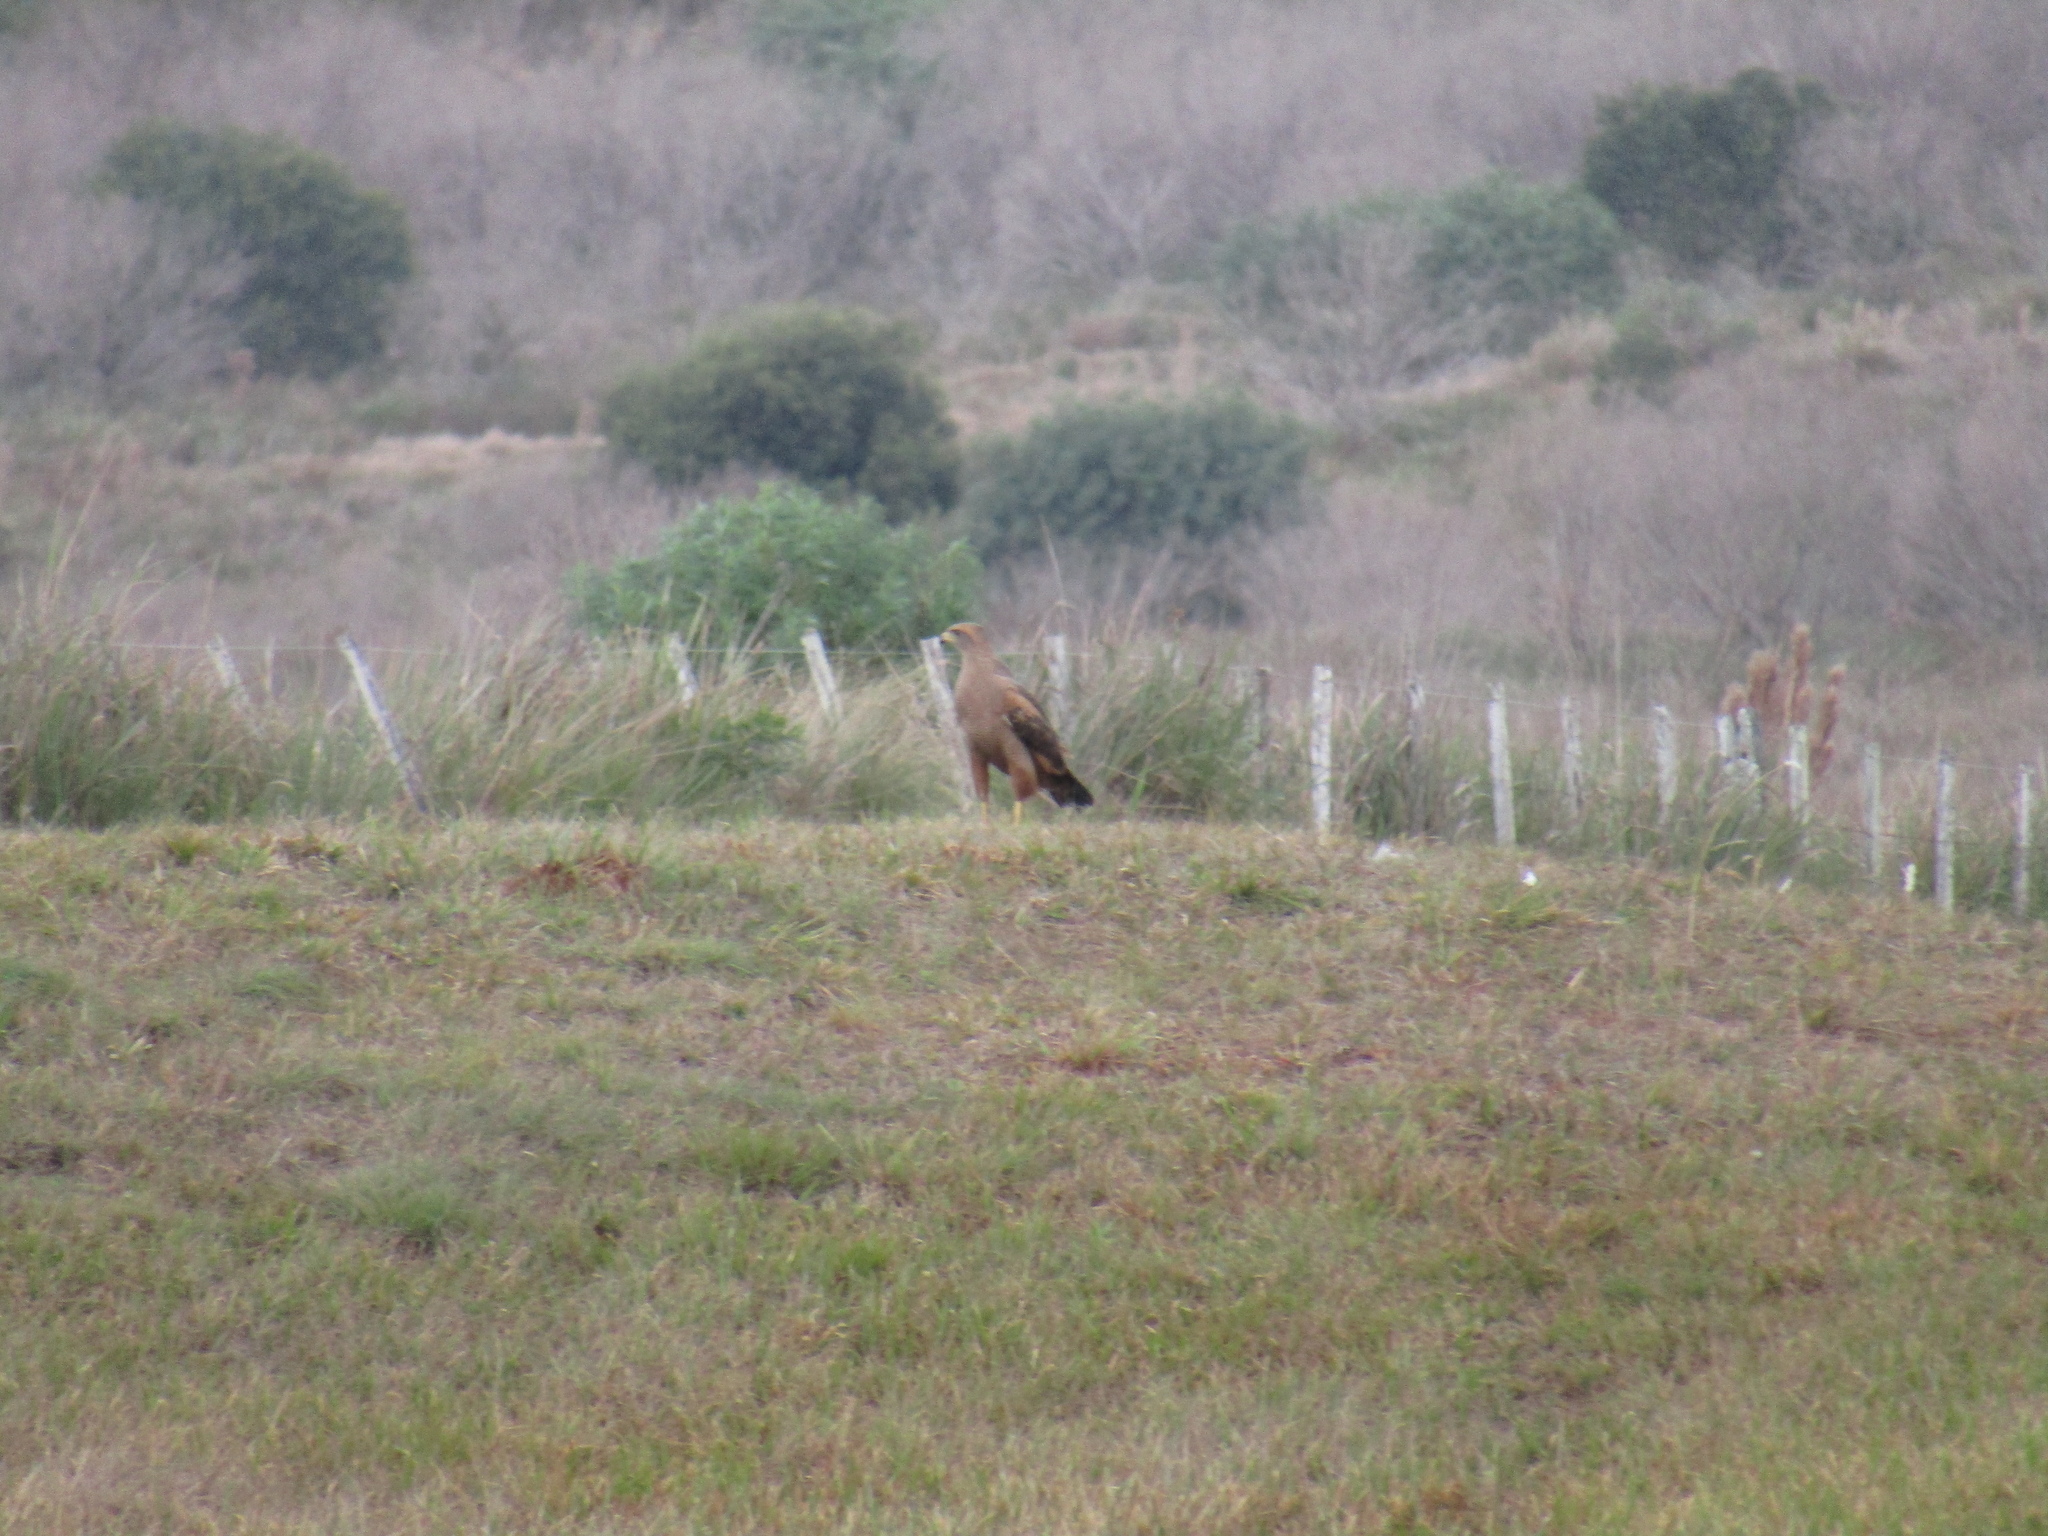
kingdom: Animalia
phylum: Chordata
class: Aves
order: Accipitriformes
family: Accipitridae
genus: Buteogallus
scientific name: Buteogallus meridionalis
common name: Savanna hawk
